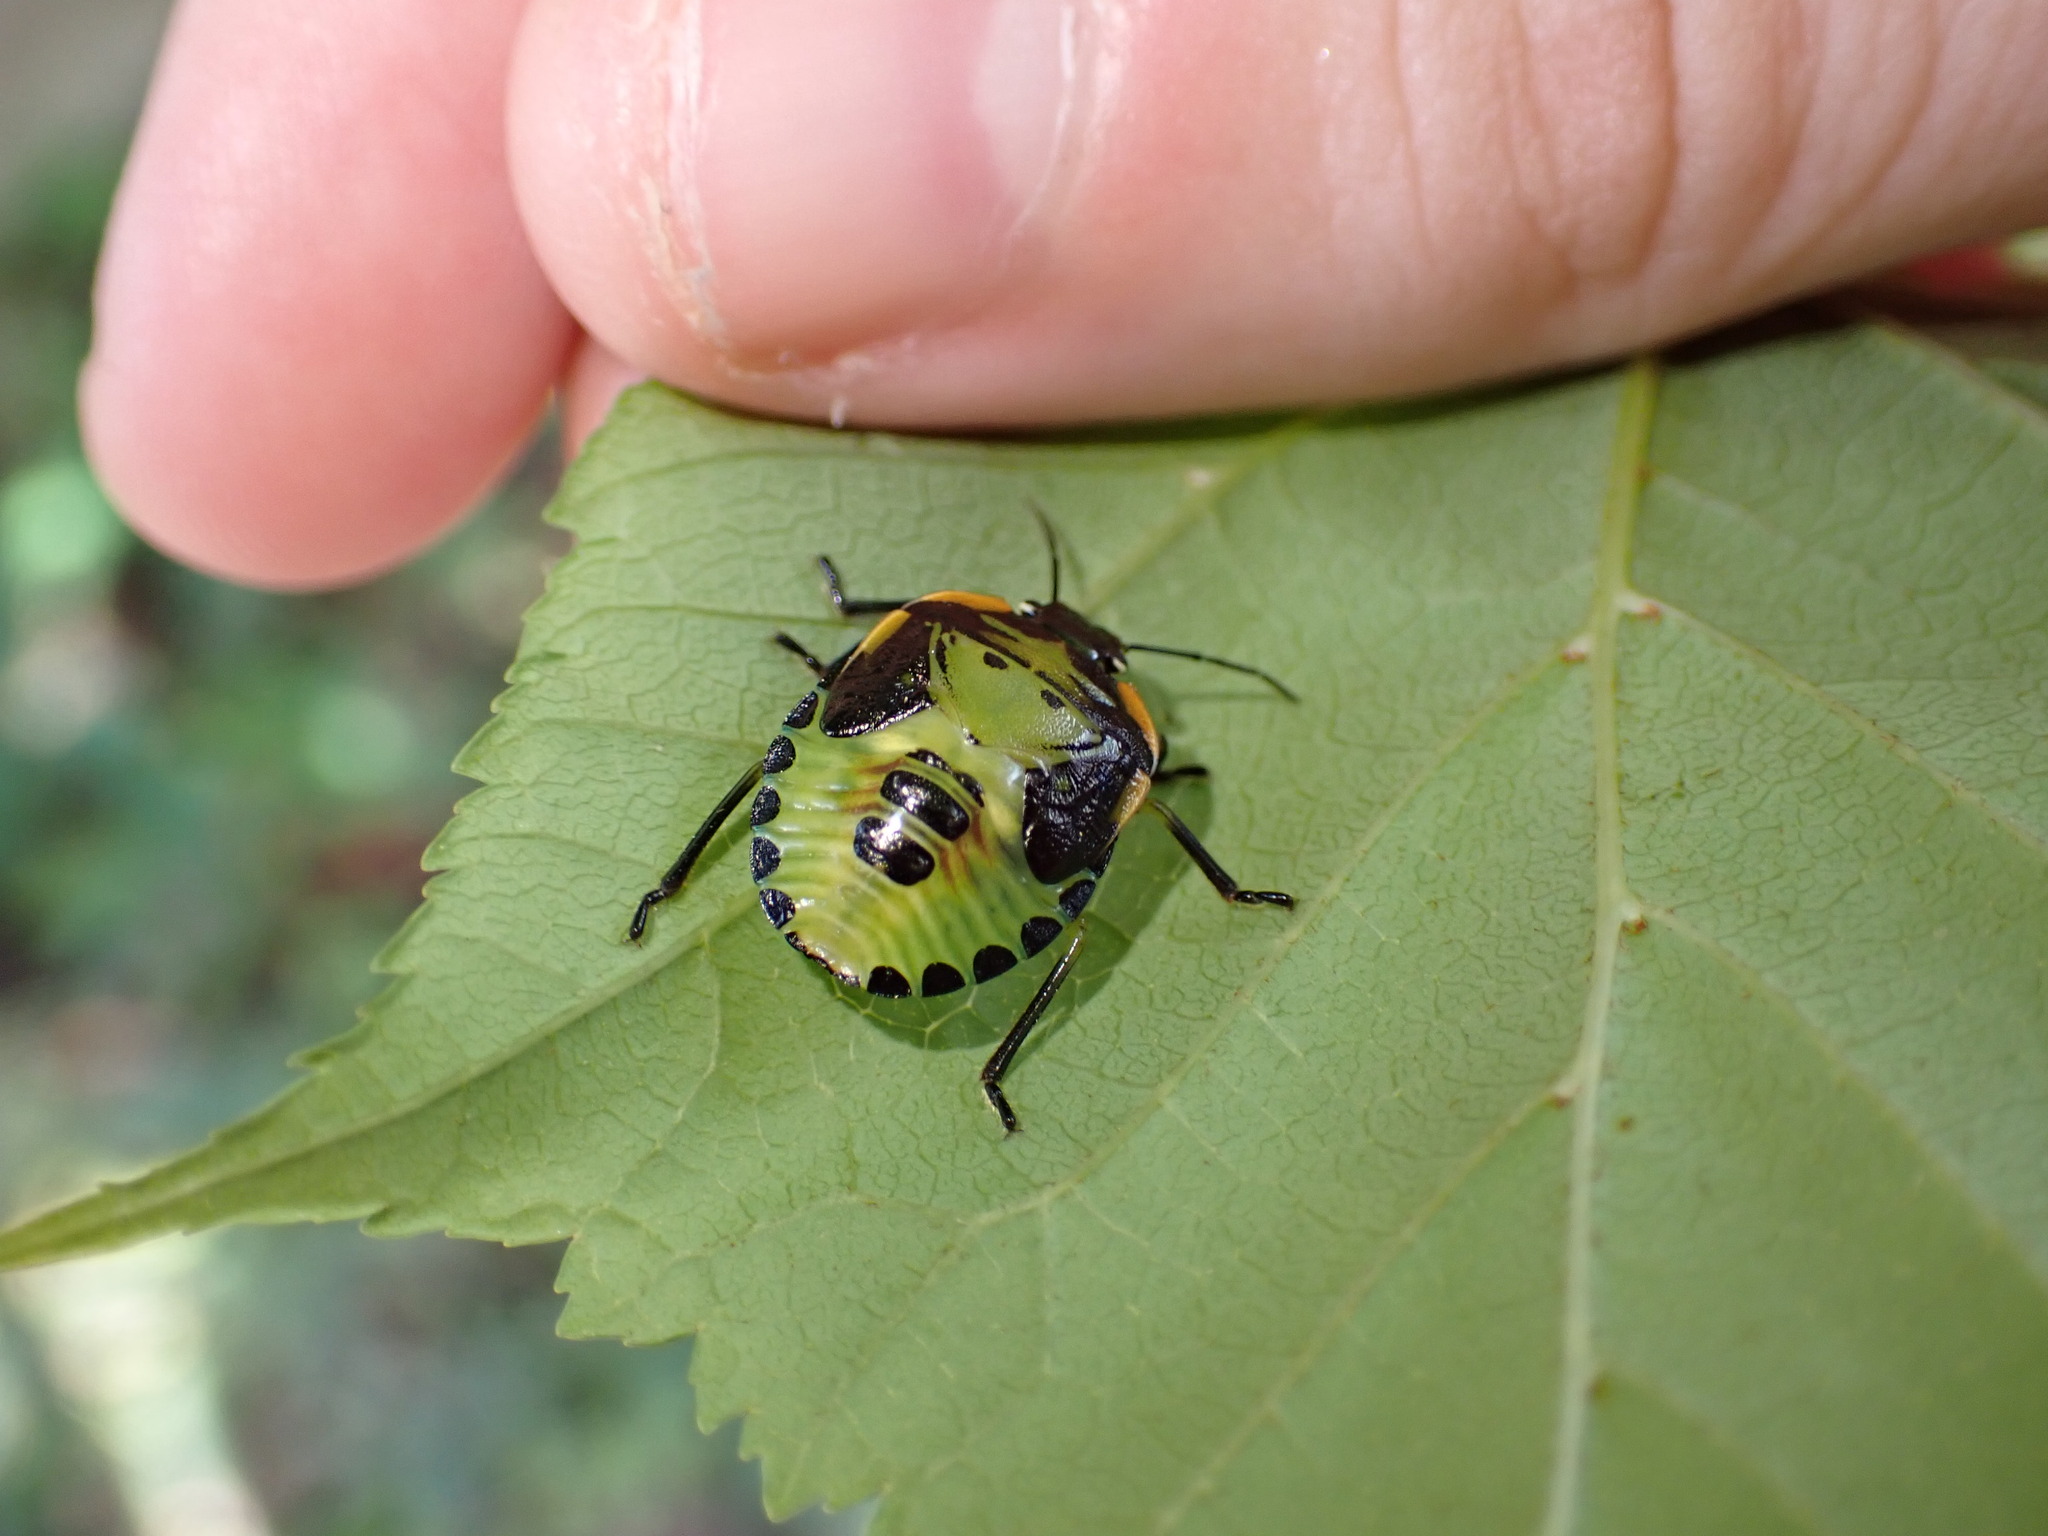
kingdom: Animalia
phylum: Arthropoda
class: Insecta
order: Hemiptera
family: Pentatomidae
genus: Chinavia
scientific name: Chinavia hilaris
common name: Green stink bug
